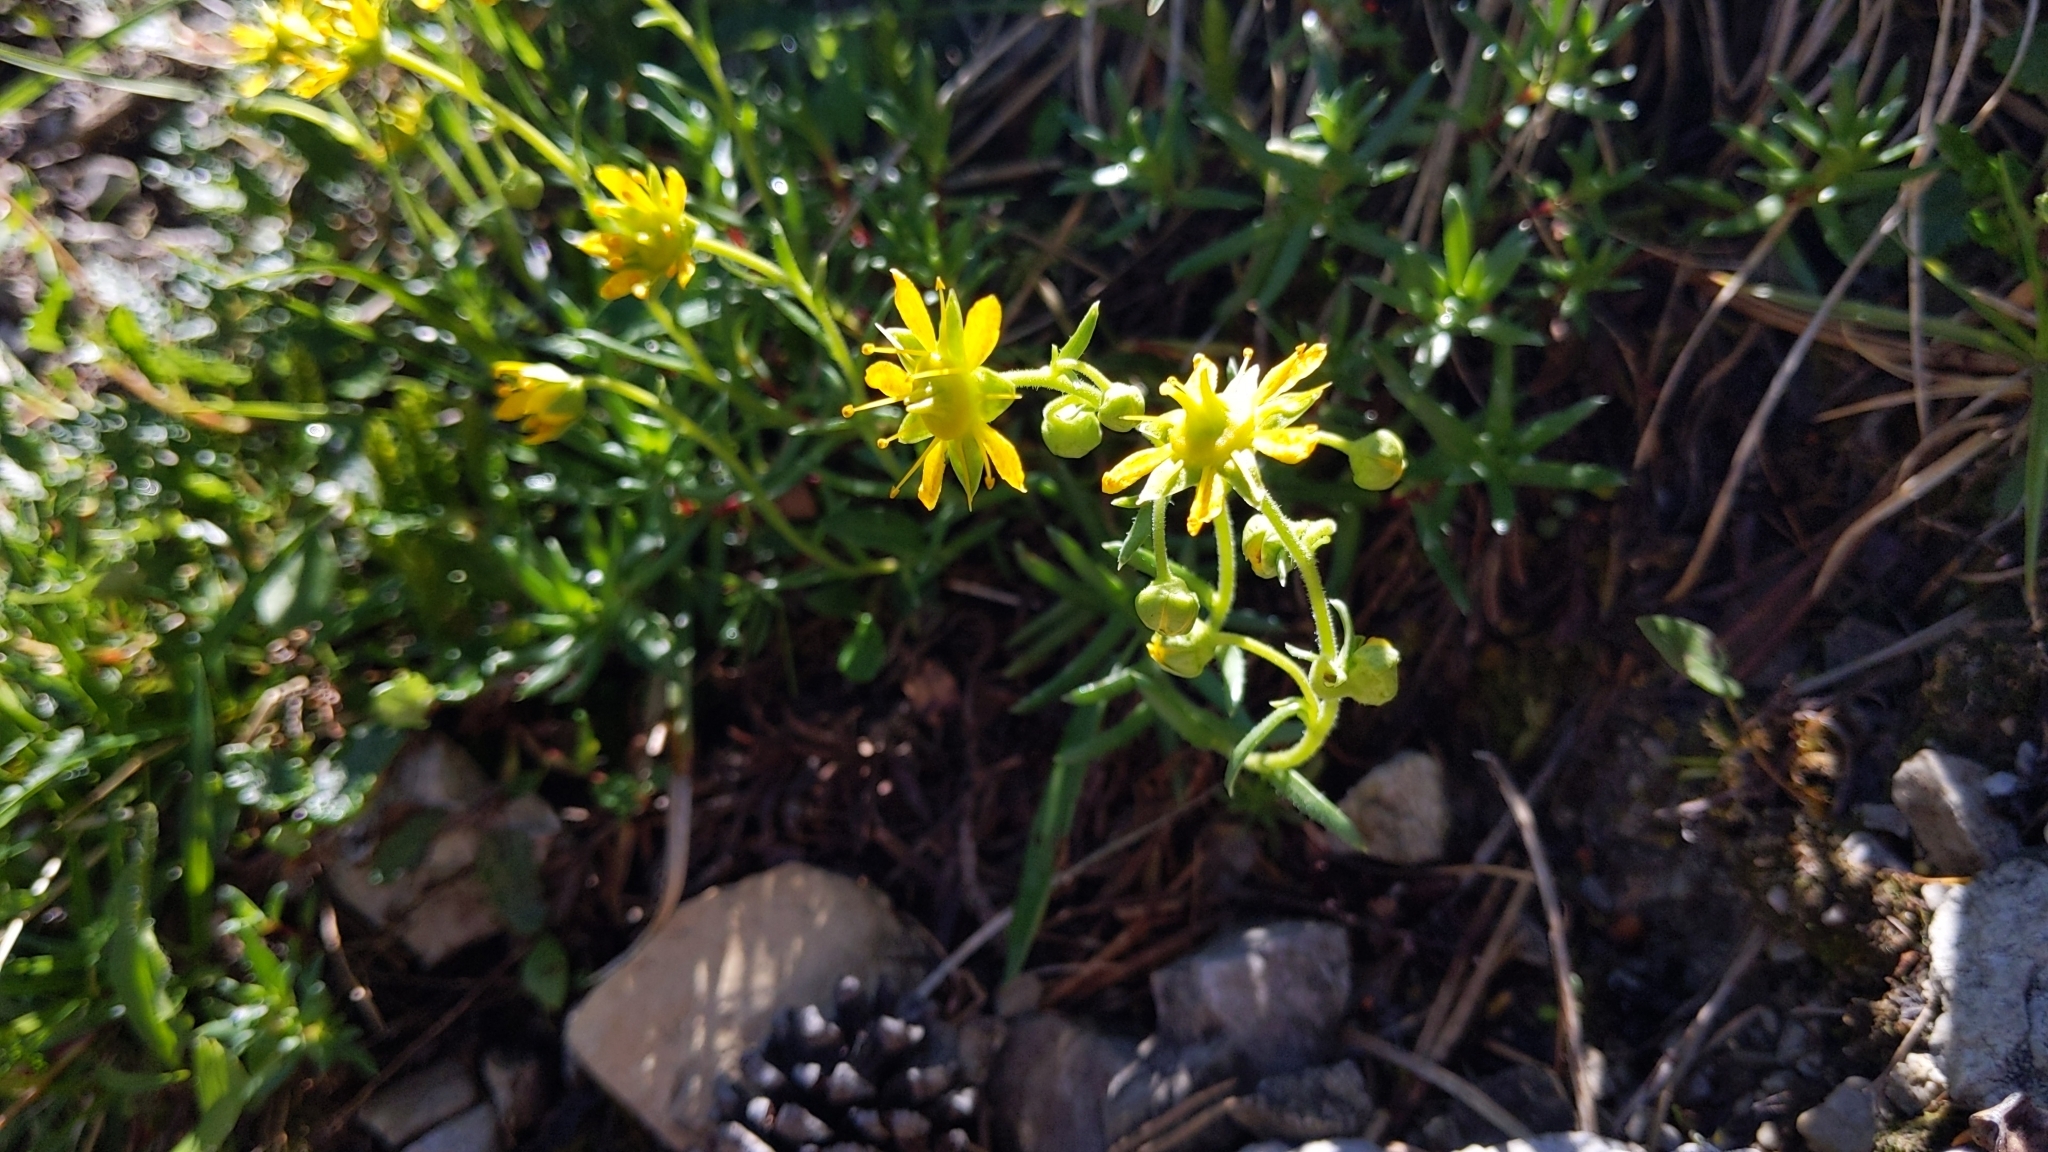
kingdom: Plantae
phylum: Tracheophyta
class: Magnoliopsida
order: Saxifragales
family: Saxifragaceae
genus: Saxifraga
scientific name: Saxifraga aizoides
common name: Yellow mountain saxifrage
